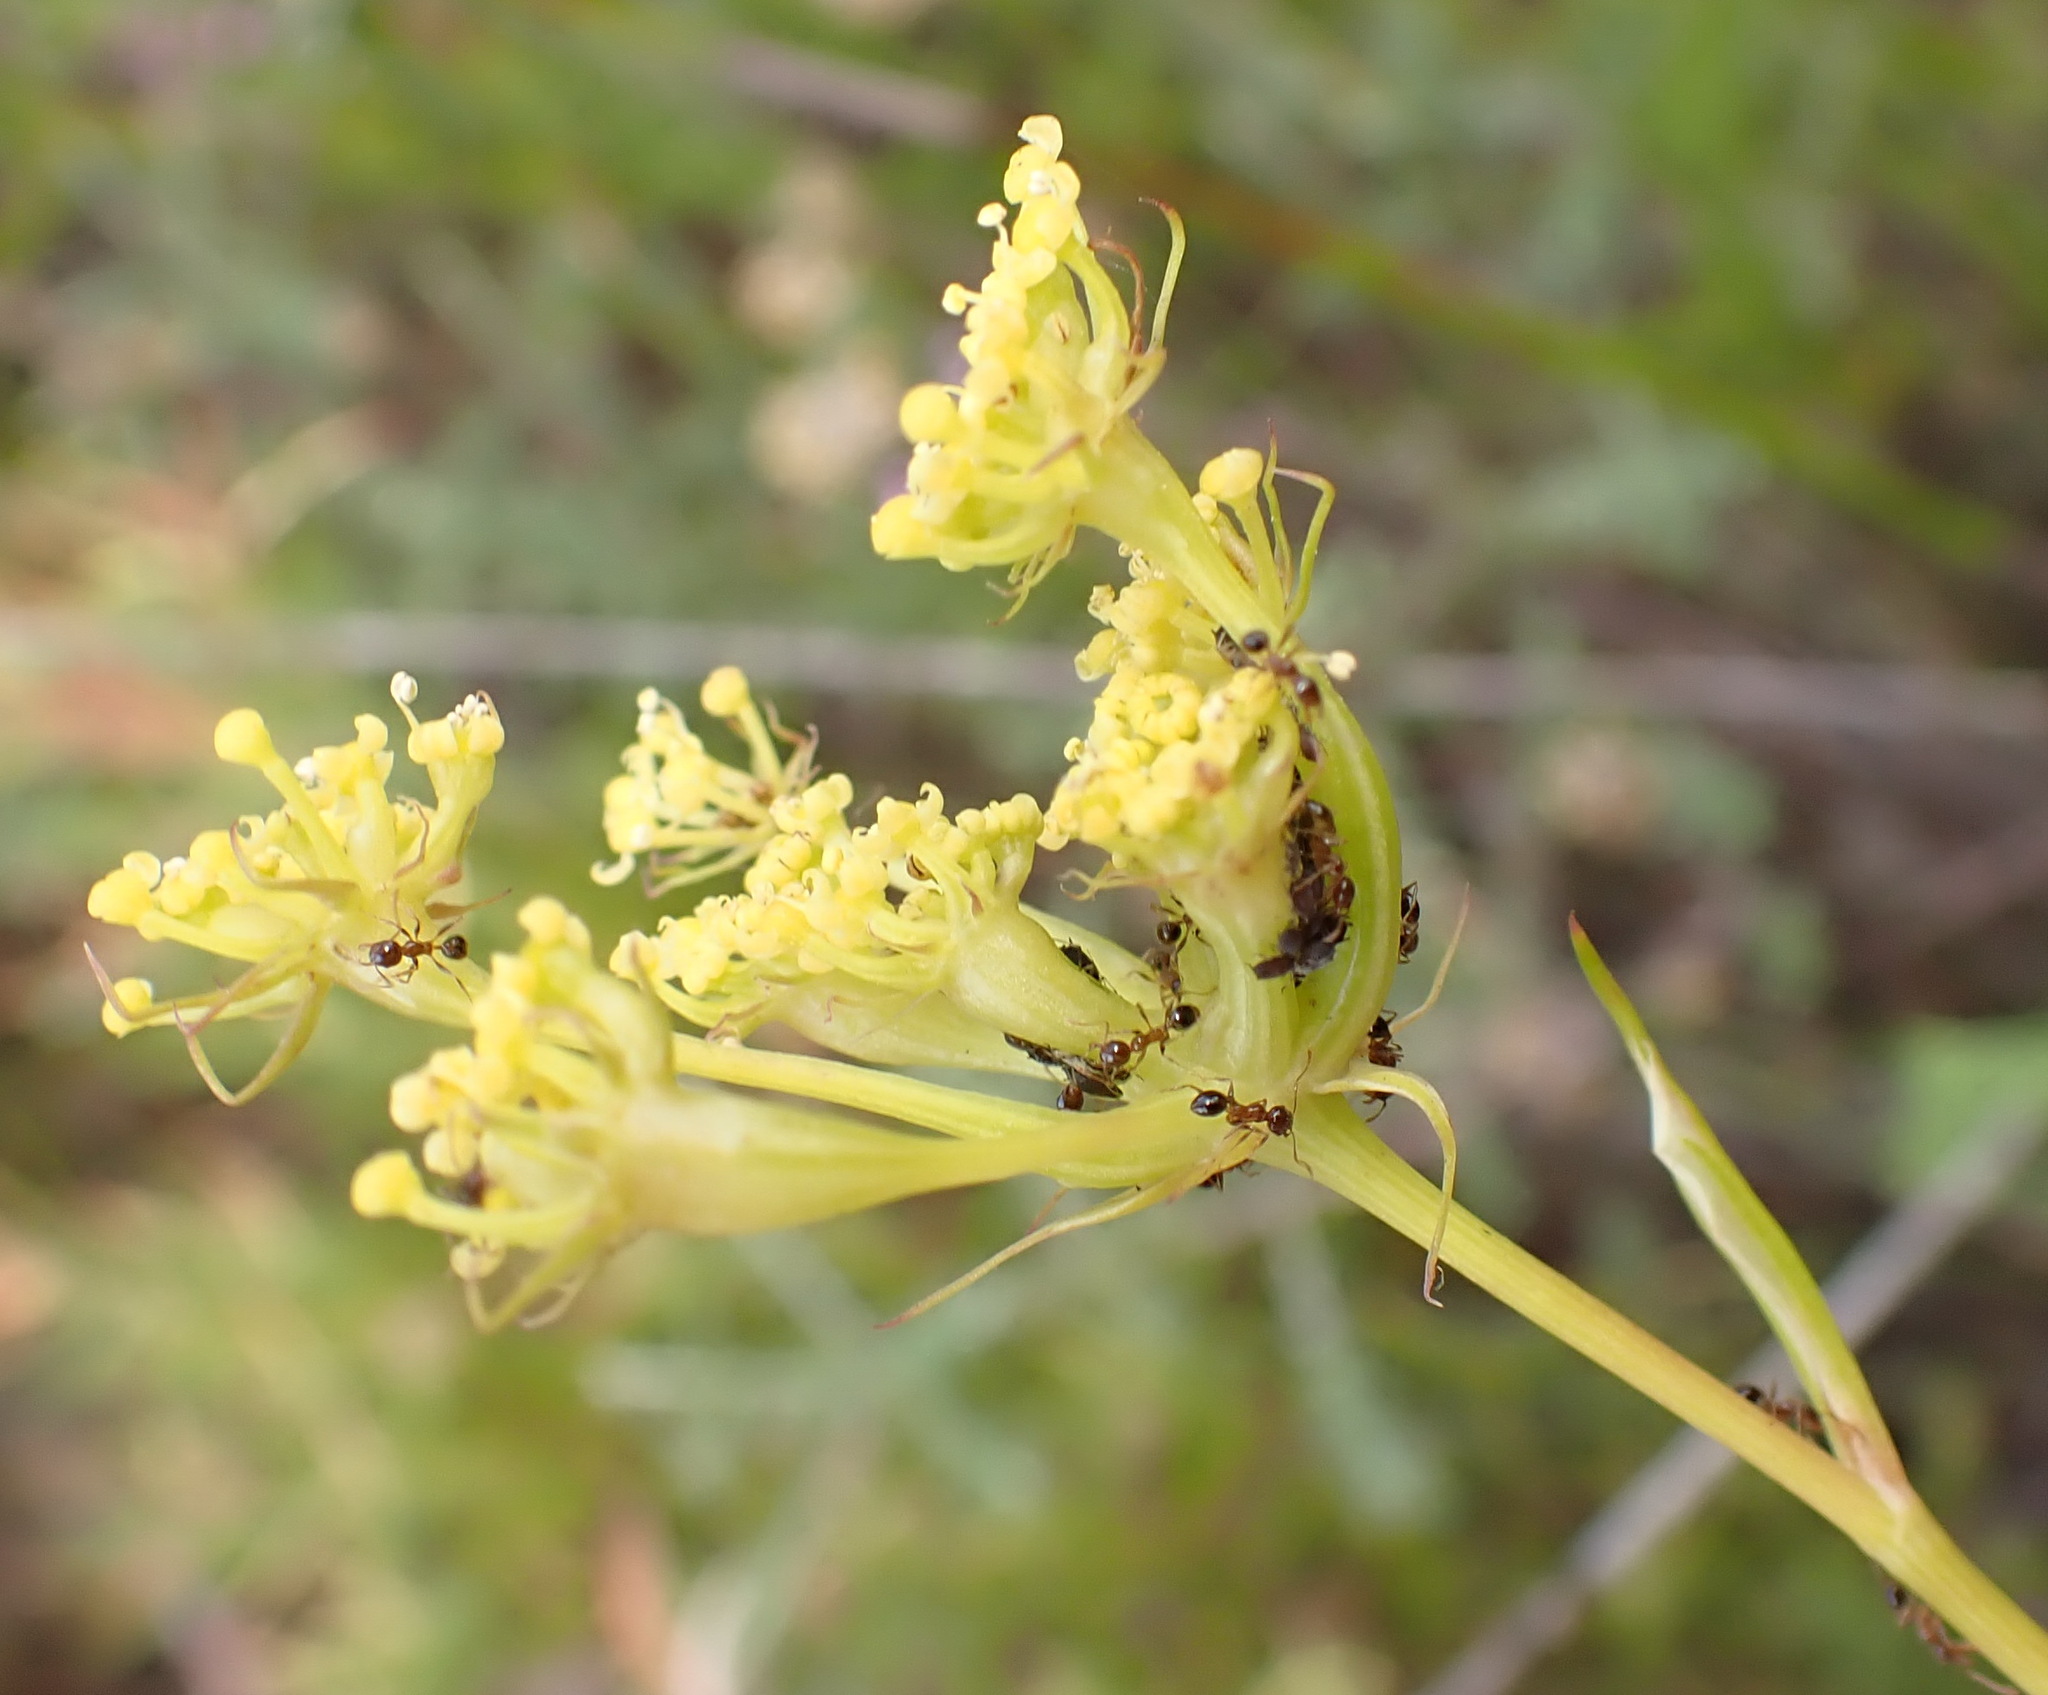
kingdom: Plantae
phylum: Tracheophyta
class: Magnoliopsida
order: Apiales
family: Apiaceae
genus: Notobubon
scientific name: Notobubon ferulaceum
